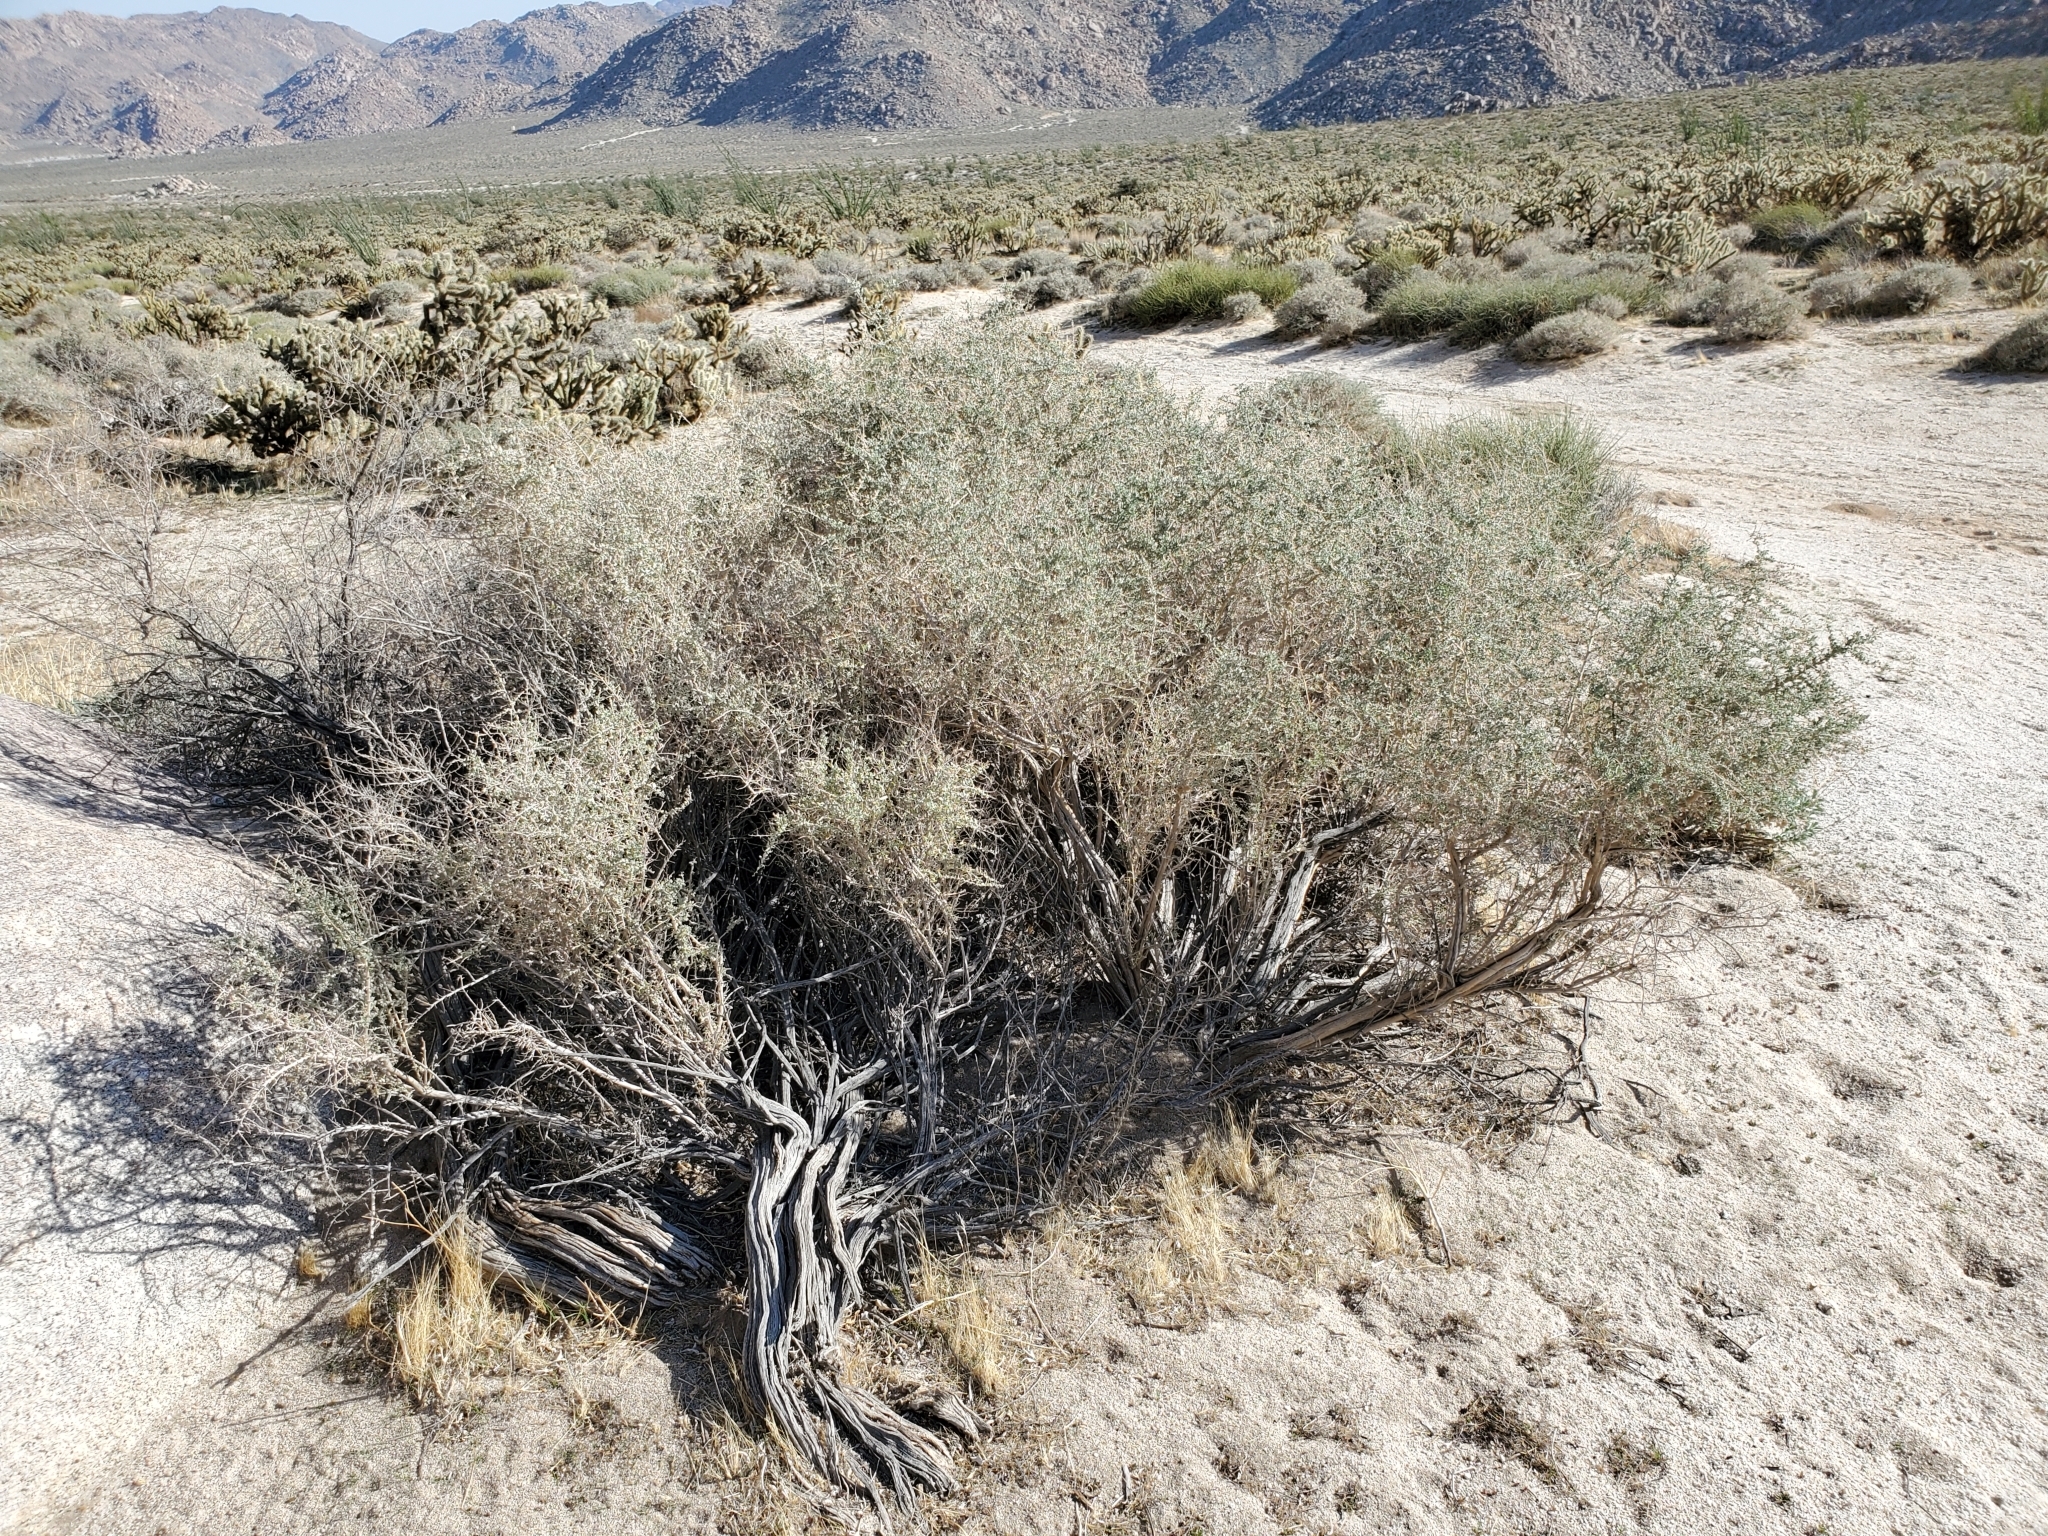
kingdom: Plantae
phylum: Tracheophyta
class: Magnoliopsida
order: Caryophyllales
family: Amaranthaceae
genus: Atriplex
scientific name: Atriplex polycarpa
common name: Desert saltbush
